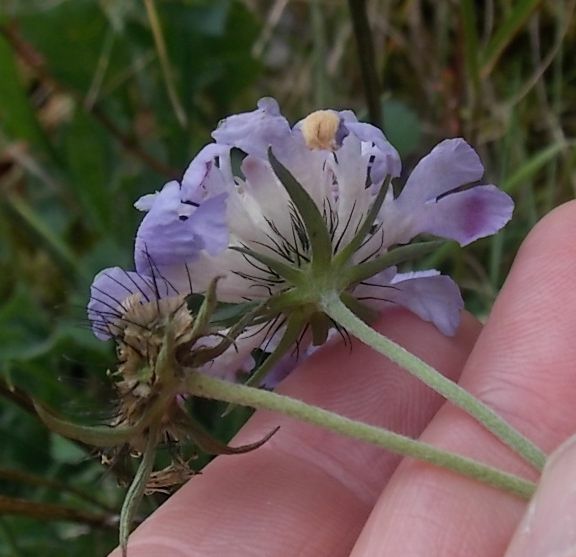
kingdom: Plantae
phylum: Tracheophyta
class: Magnoliopsida
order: Dipsacales
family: Caprifoliaceae
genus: Scabiosa
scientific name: Scabiosa columbaria
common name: Small scabious
